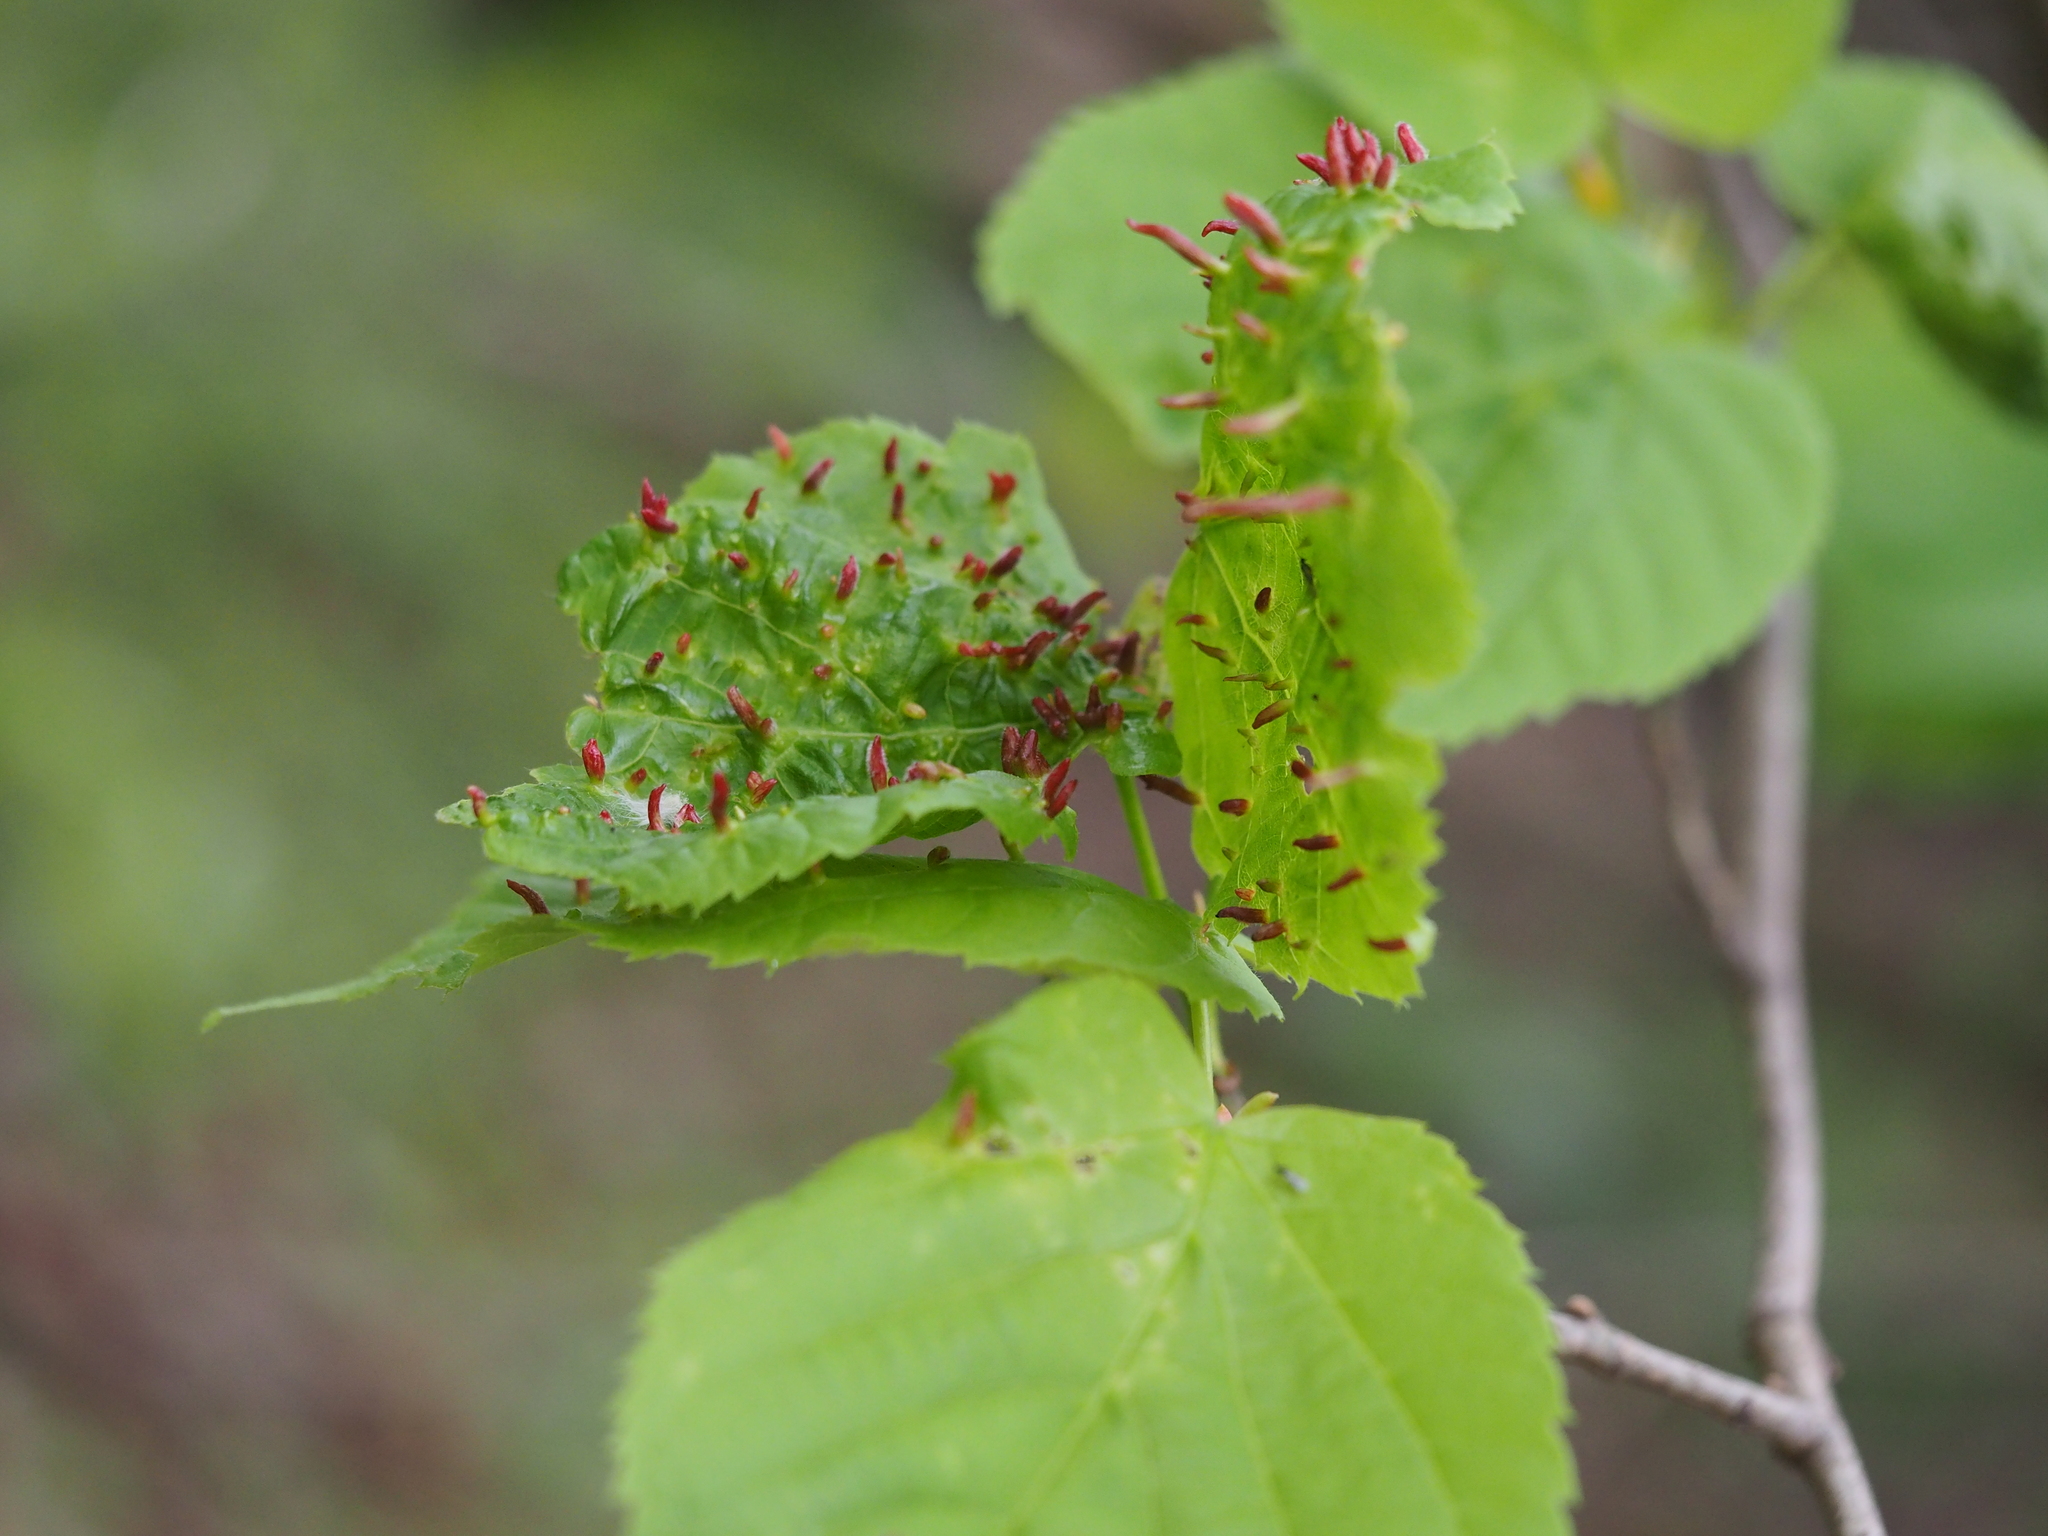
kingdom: Animalia
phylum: Arthropoda
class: Arachnida
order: Trombidiformes
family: Eriophyidae
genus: Eriophyes
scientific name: Eriophyes tiliae
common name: Red nail gall mite
